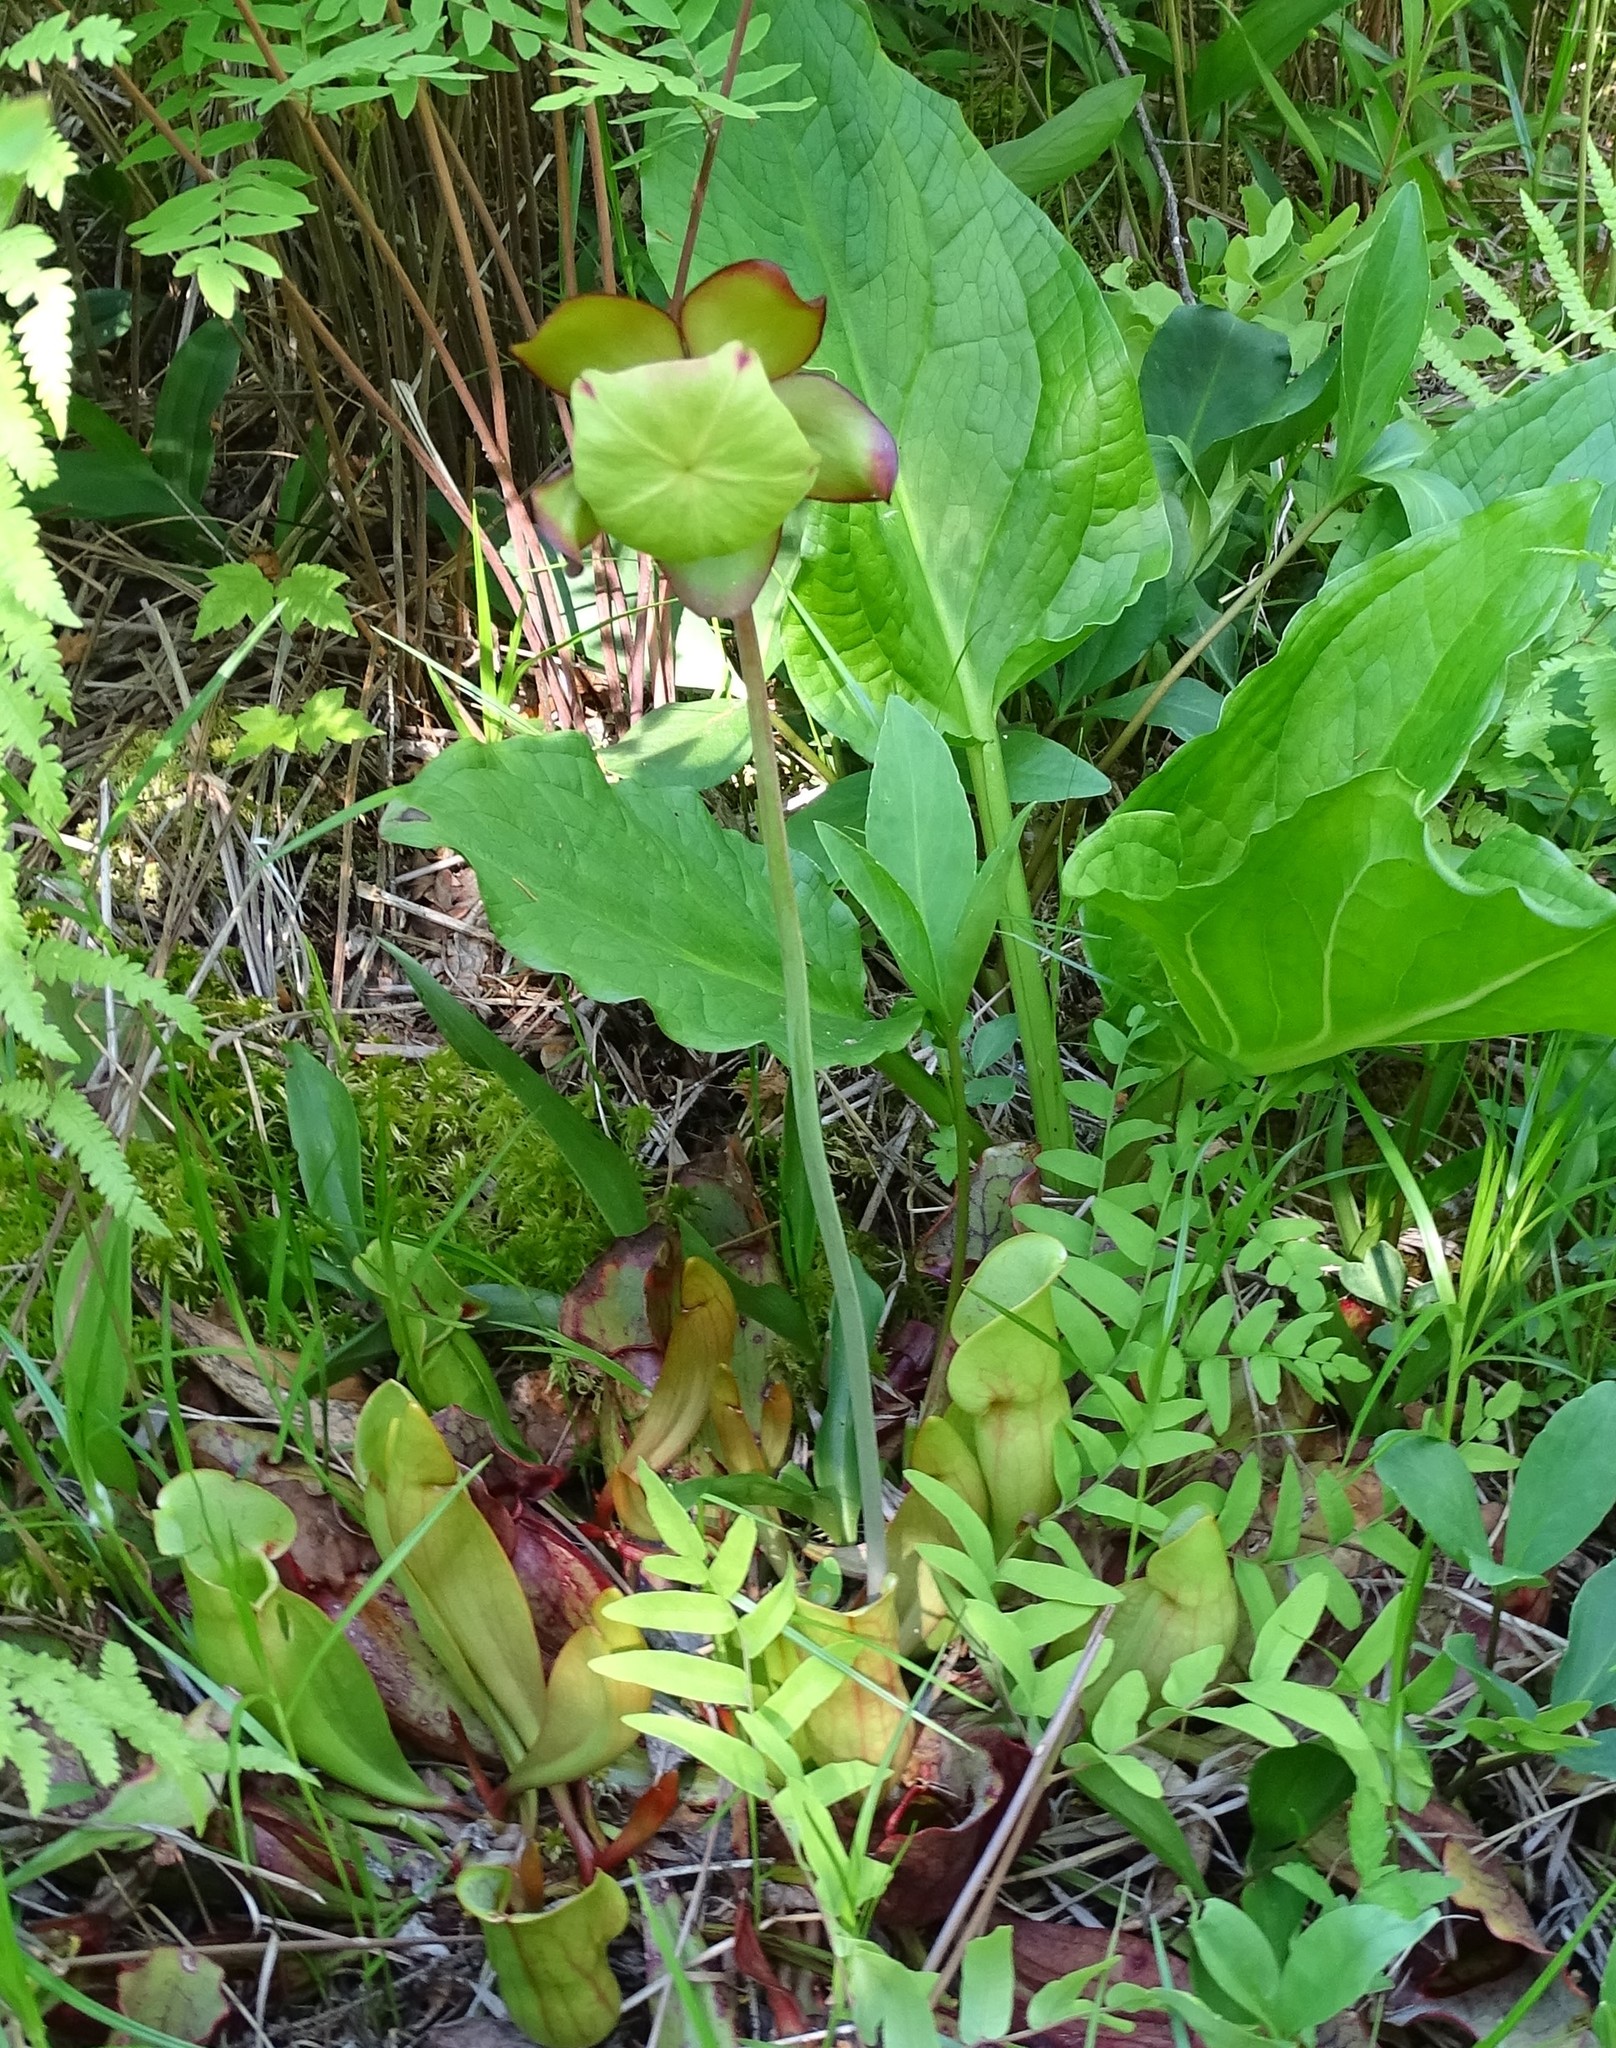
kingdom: Plantae
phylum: Tracheophyta
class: Magnoliopsida
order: Ericales
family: Sarraceniaceae
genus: Sarracenia
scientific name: Sarracenia purpurea
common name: Pitcherplant
